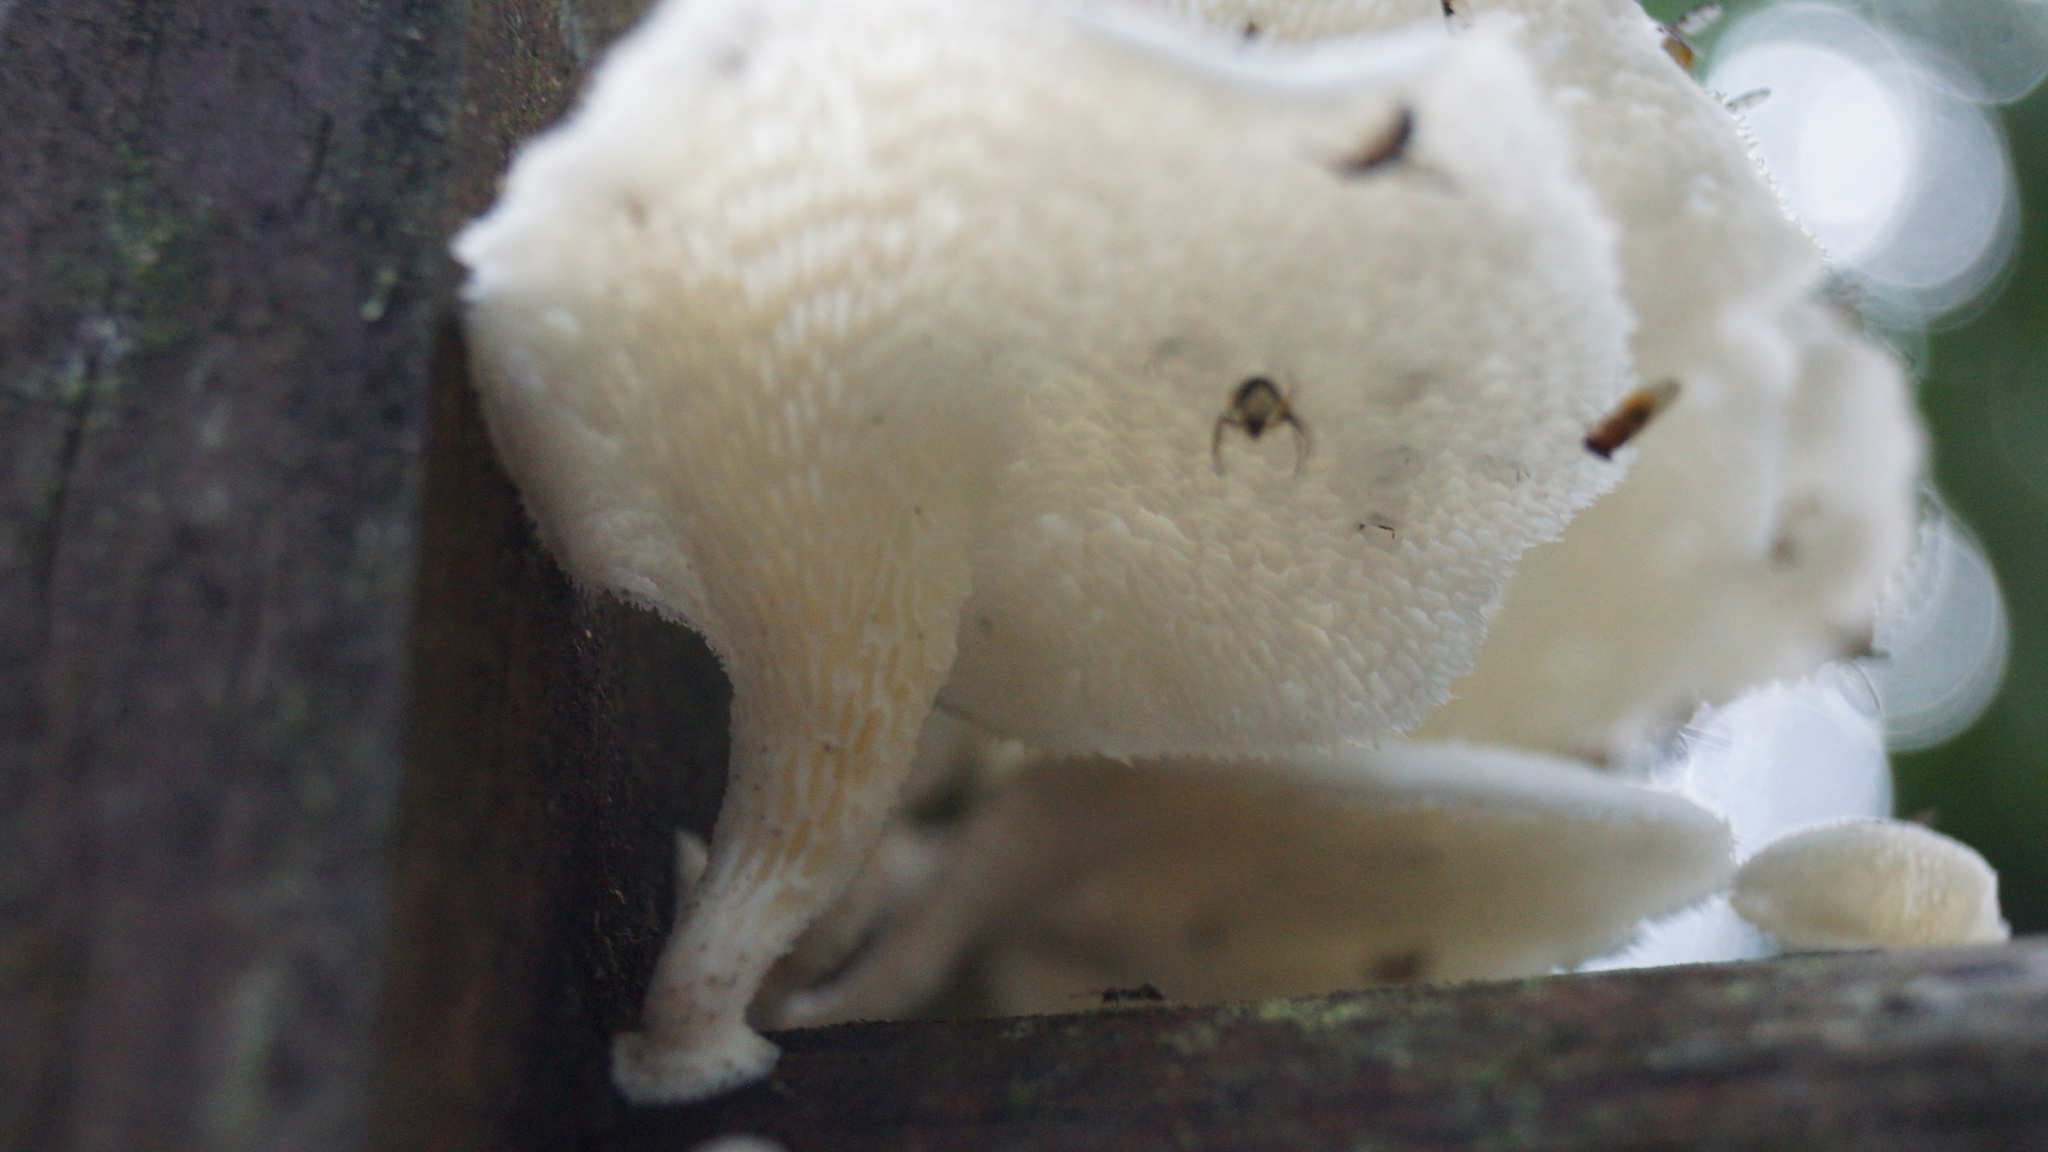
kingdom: Fungi
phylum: Basidiomycota
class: Agaricomycetes
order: Polyporales
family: Polyporaceae
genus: Favolus
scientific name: Favolus tenuiculus
